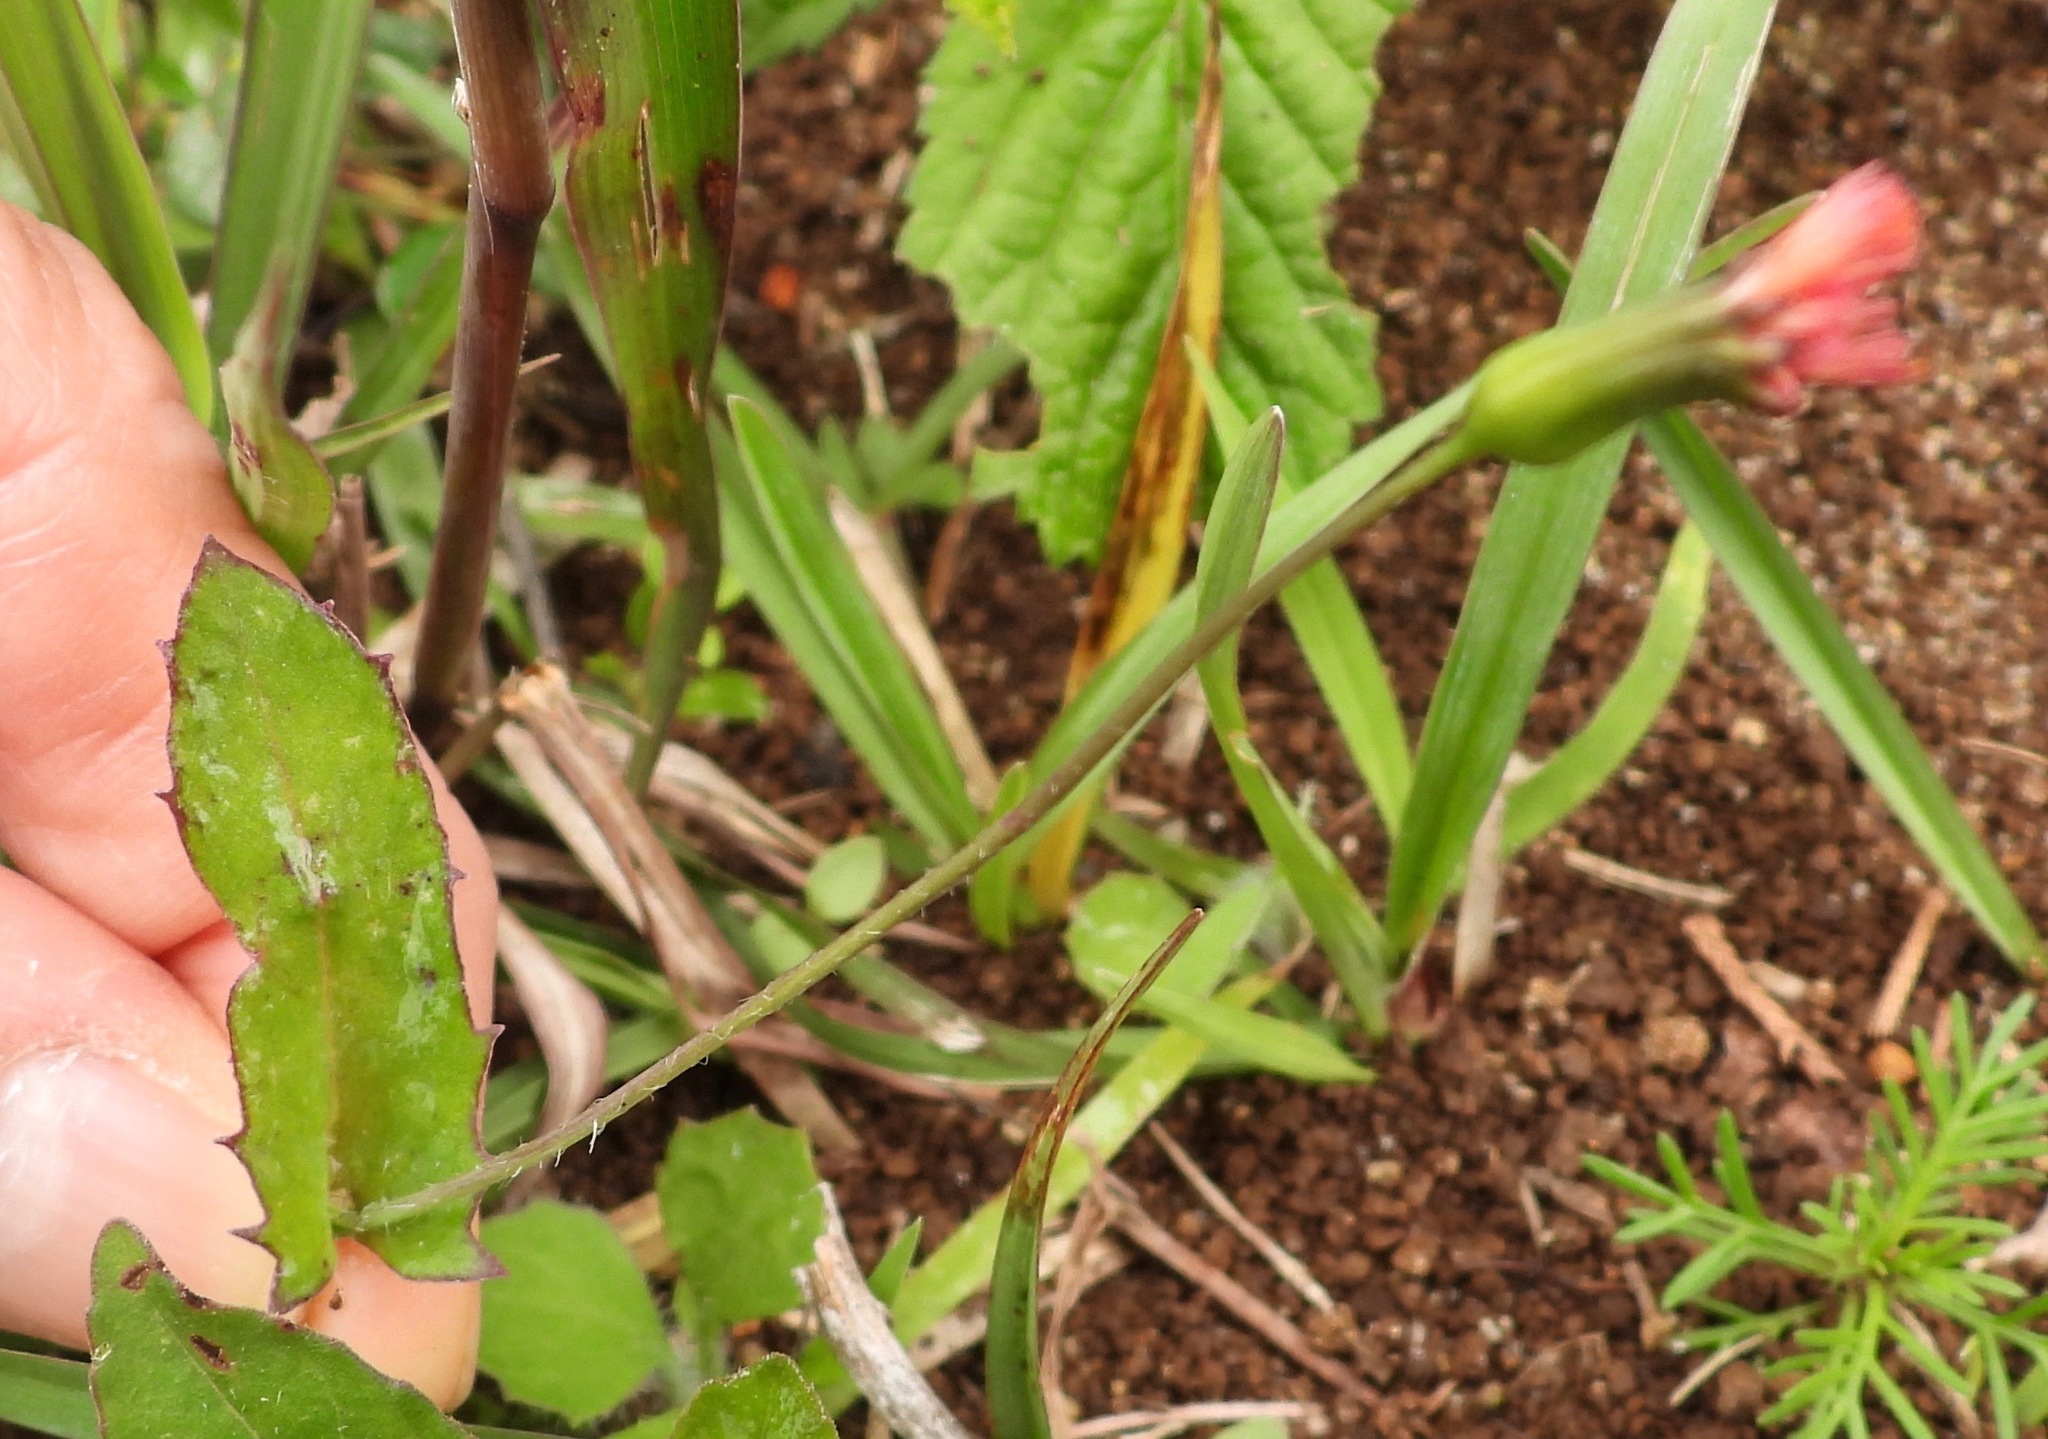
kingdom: Plantae
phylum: Tracheophyta
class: Magnoliopsida
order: Asterales
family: Asteraceae
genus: Emilia
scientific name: Emilia fosbergii
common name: Florida tasselflower
